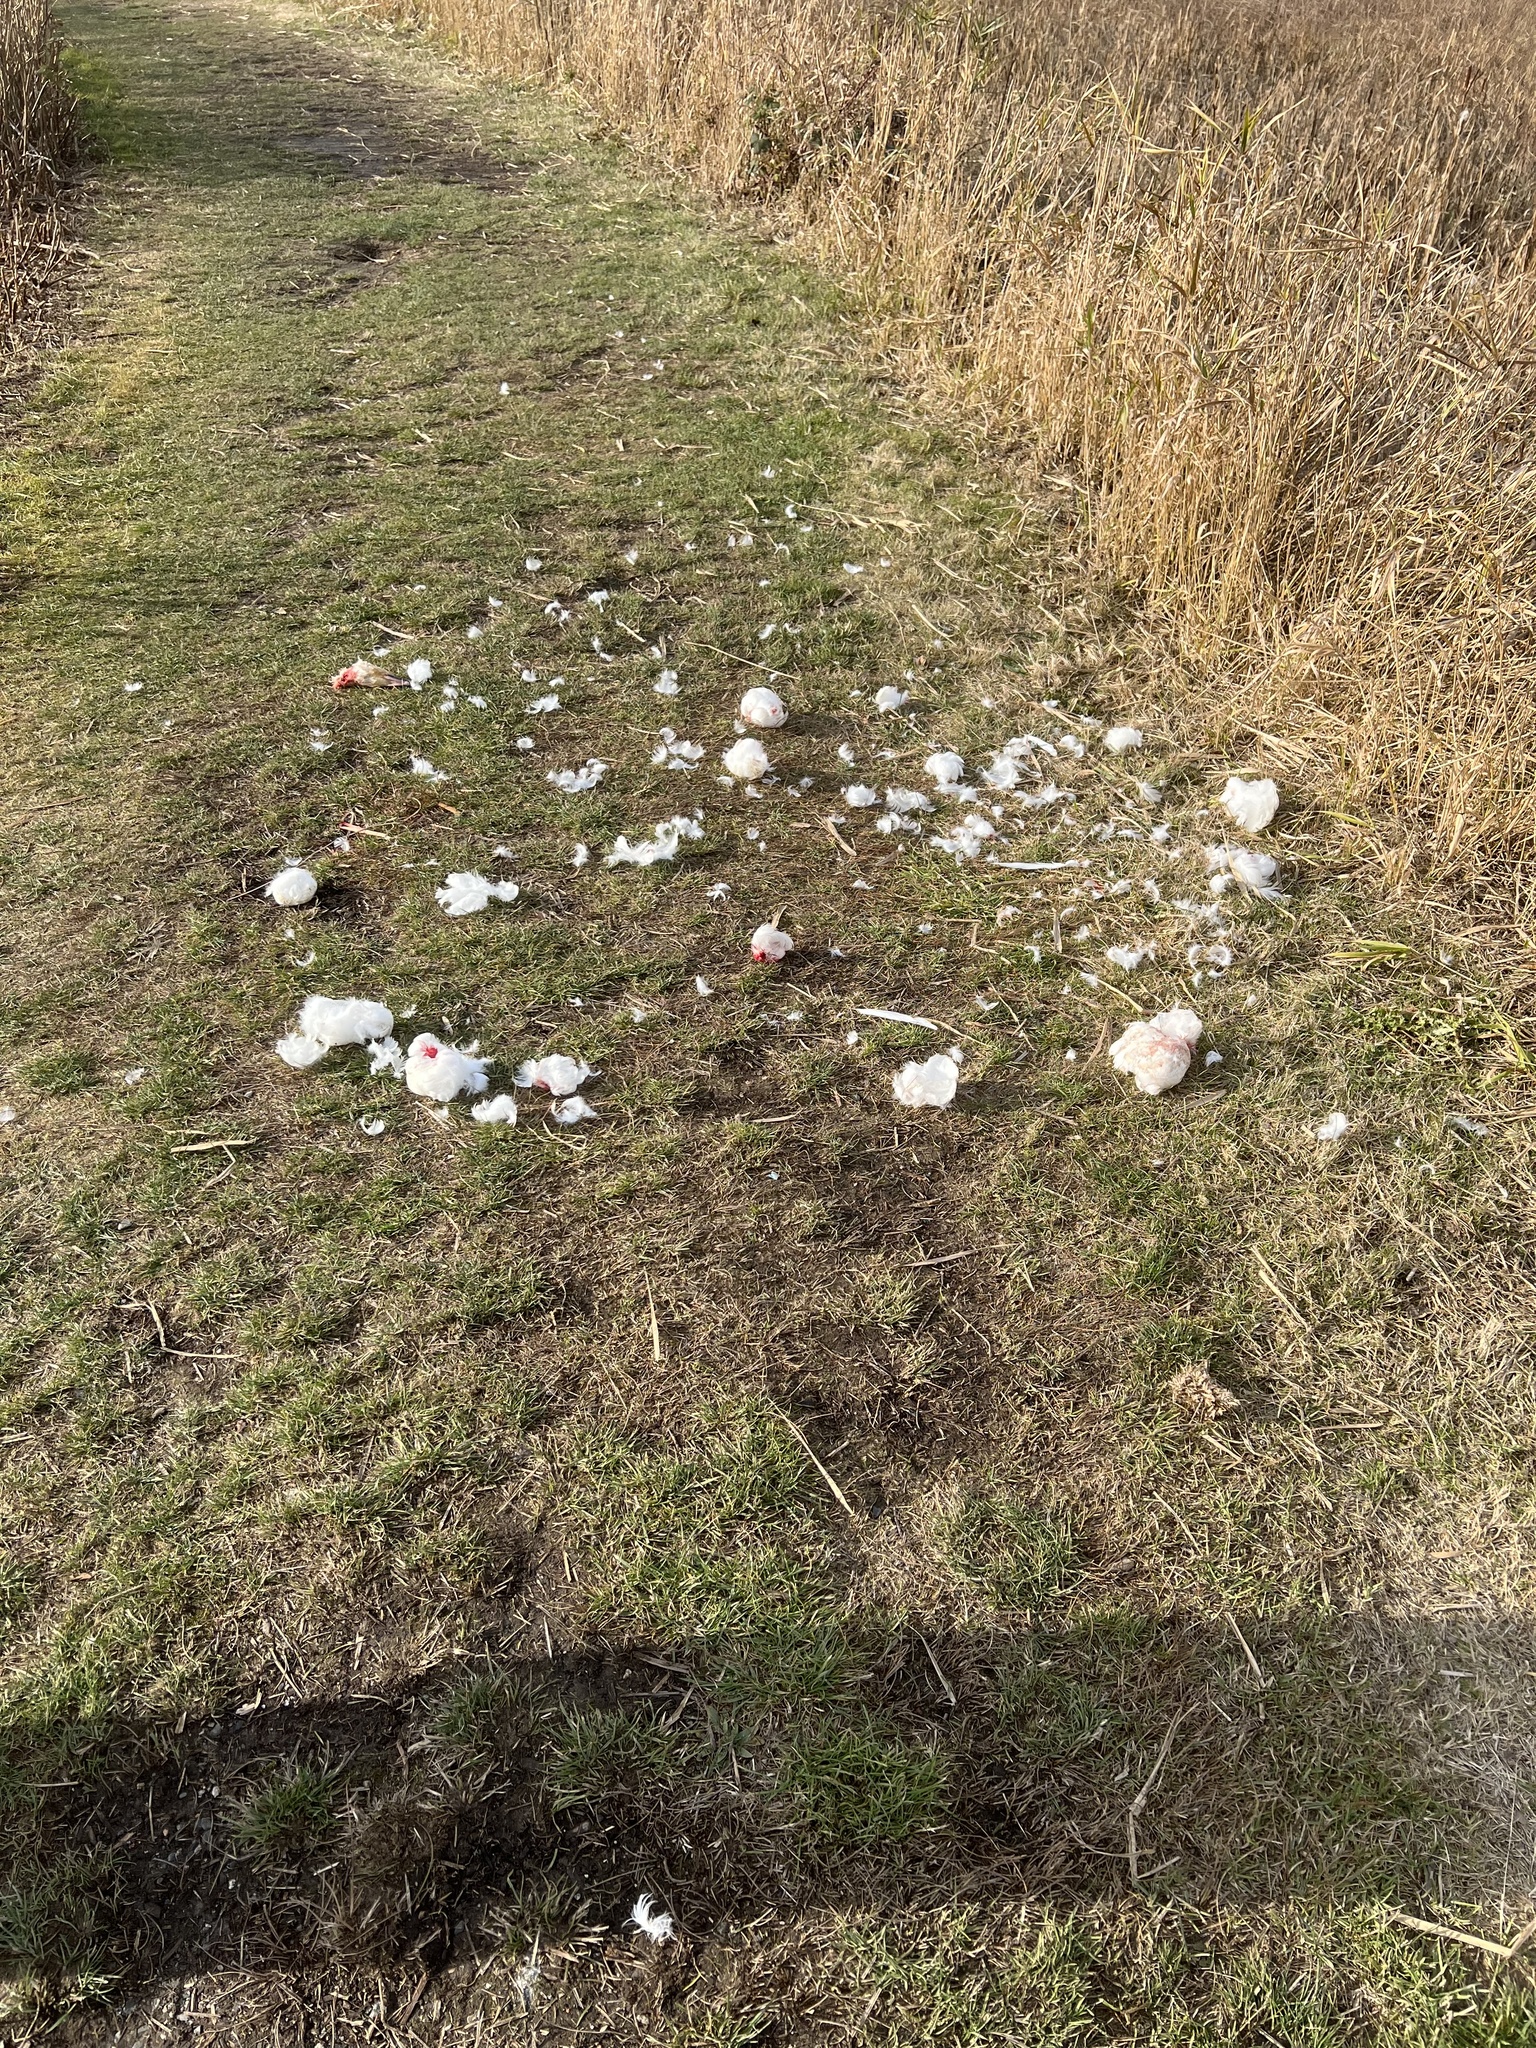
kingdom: Animalia
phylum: Chordata
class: Aves
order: Anseriformes
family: Anatidae
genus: Anser
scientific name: Anser caerulescens
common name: Snow goose
